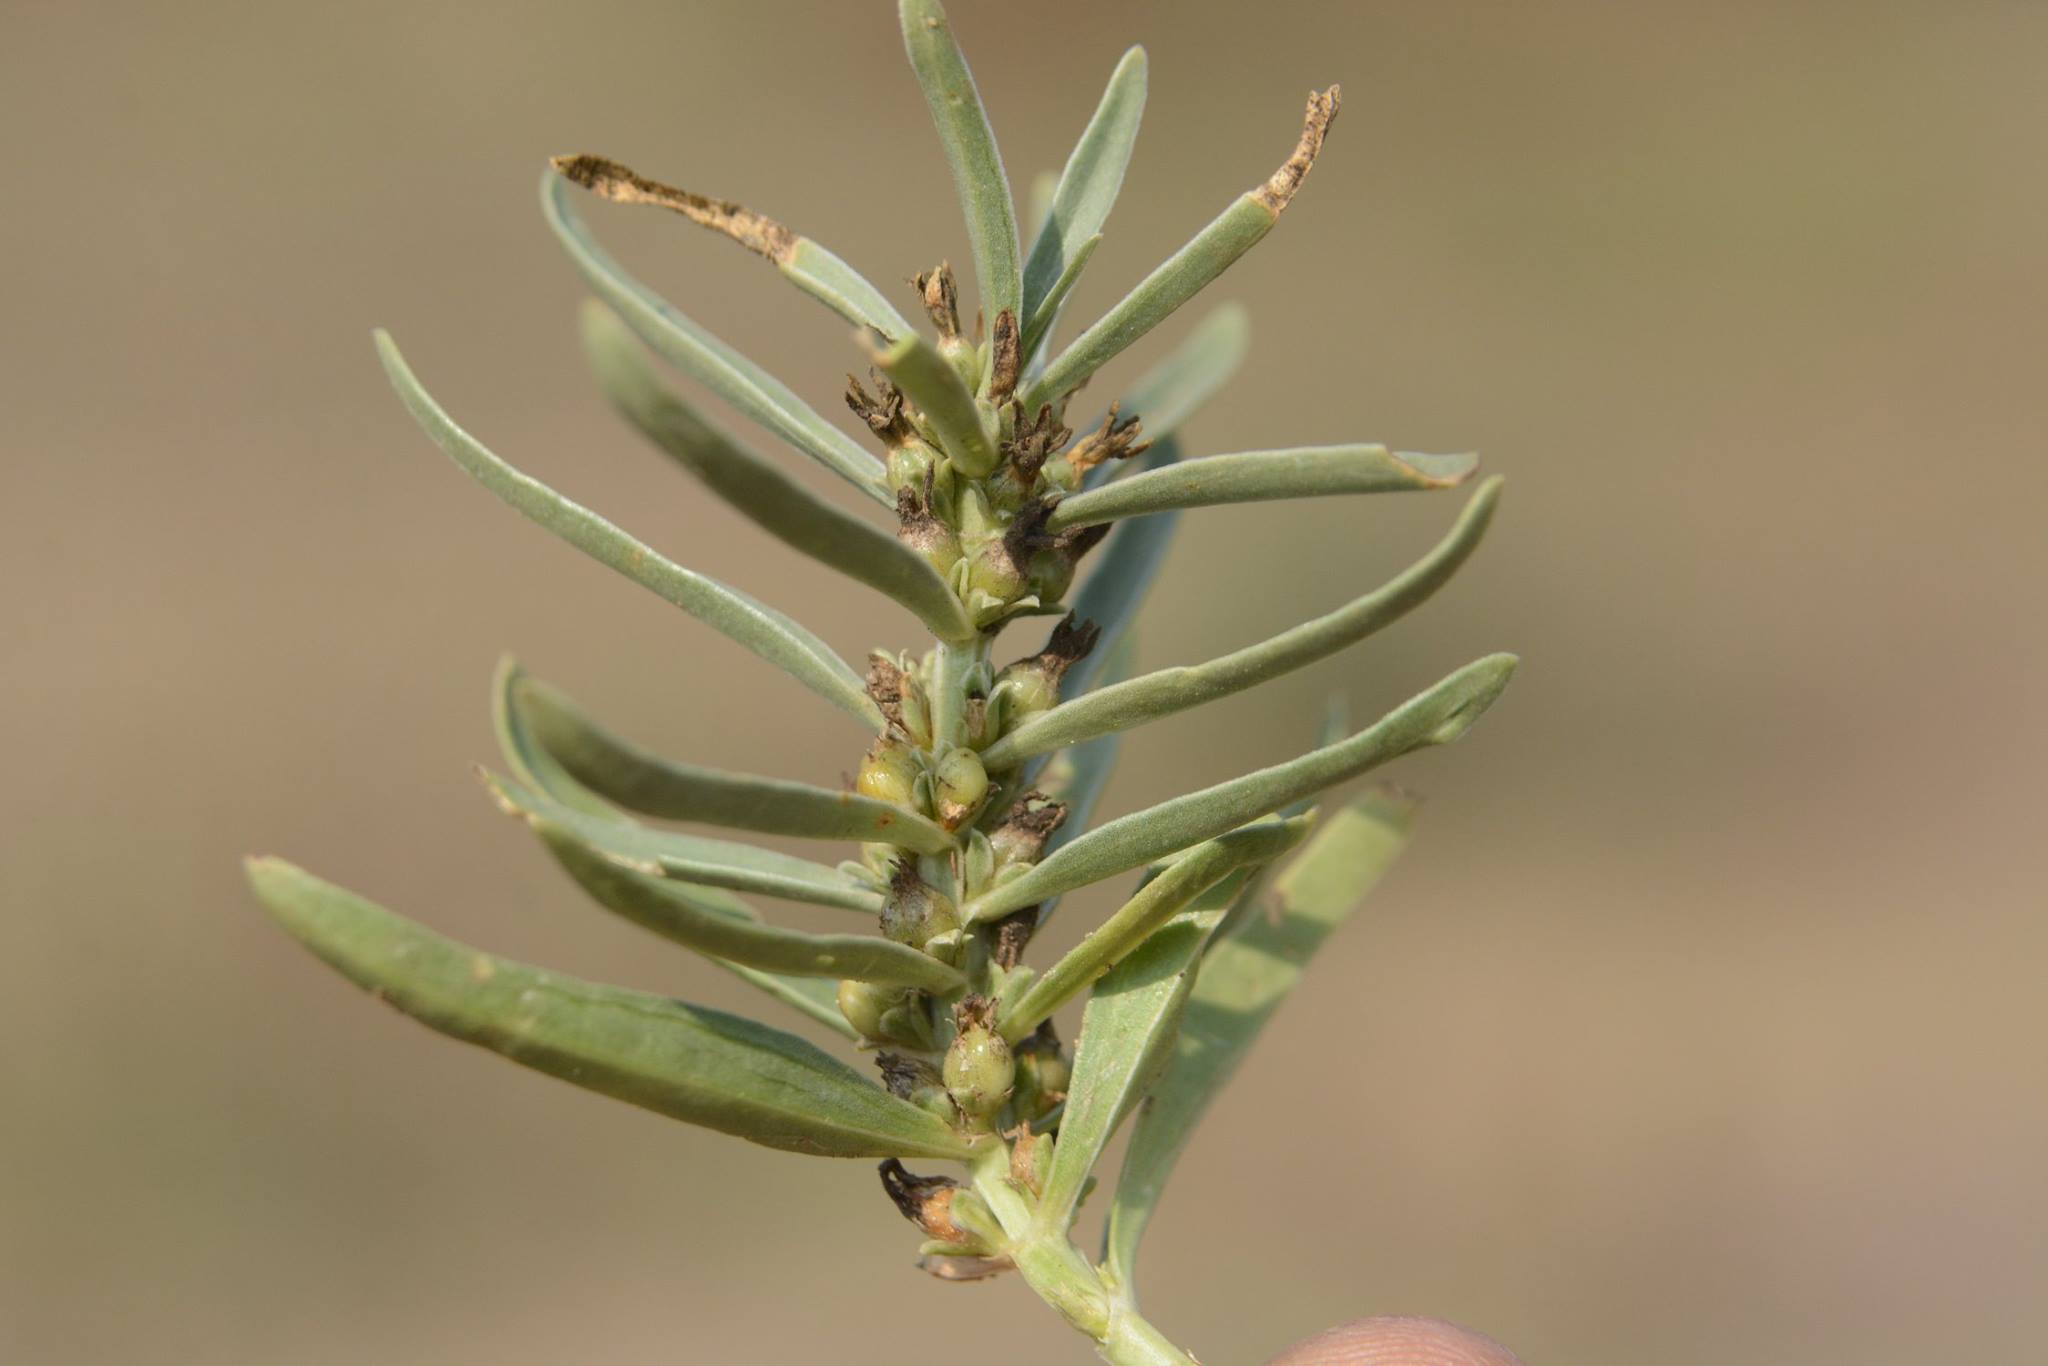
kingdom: Plantae
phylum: Tracheophyta
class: Magnoliopsida
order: Gentianales
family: Gentianaceae
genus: Enicostema
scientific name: Enicostema axillare
